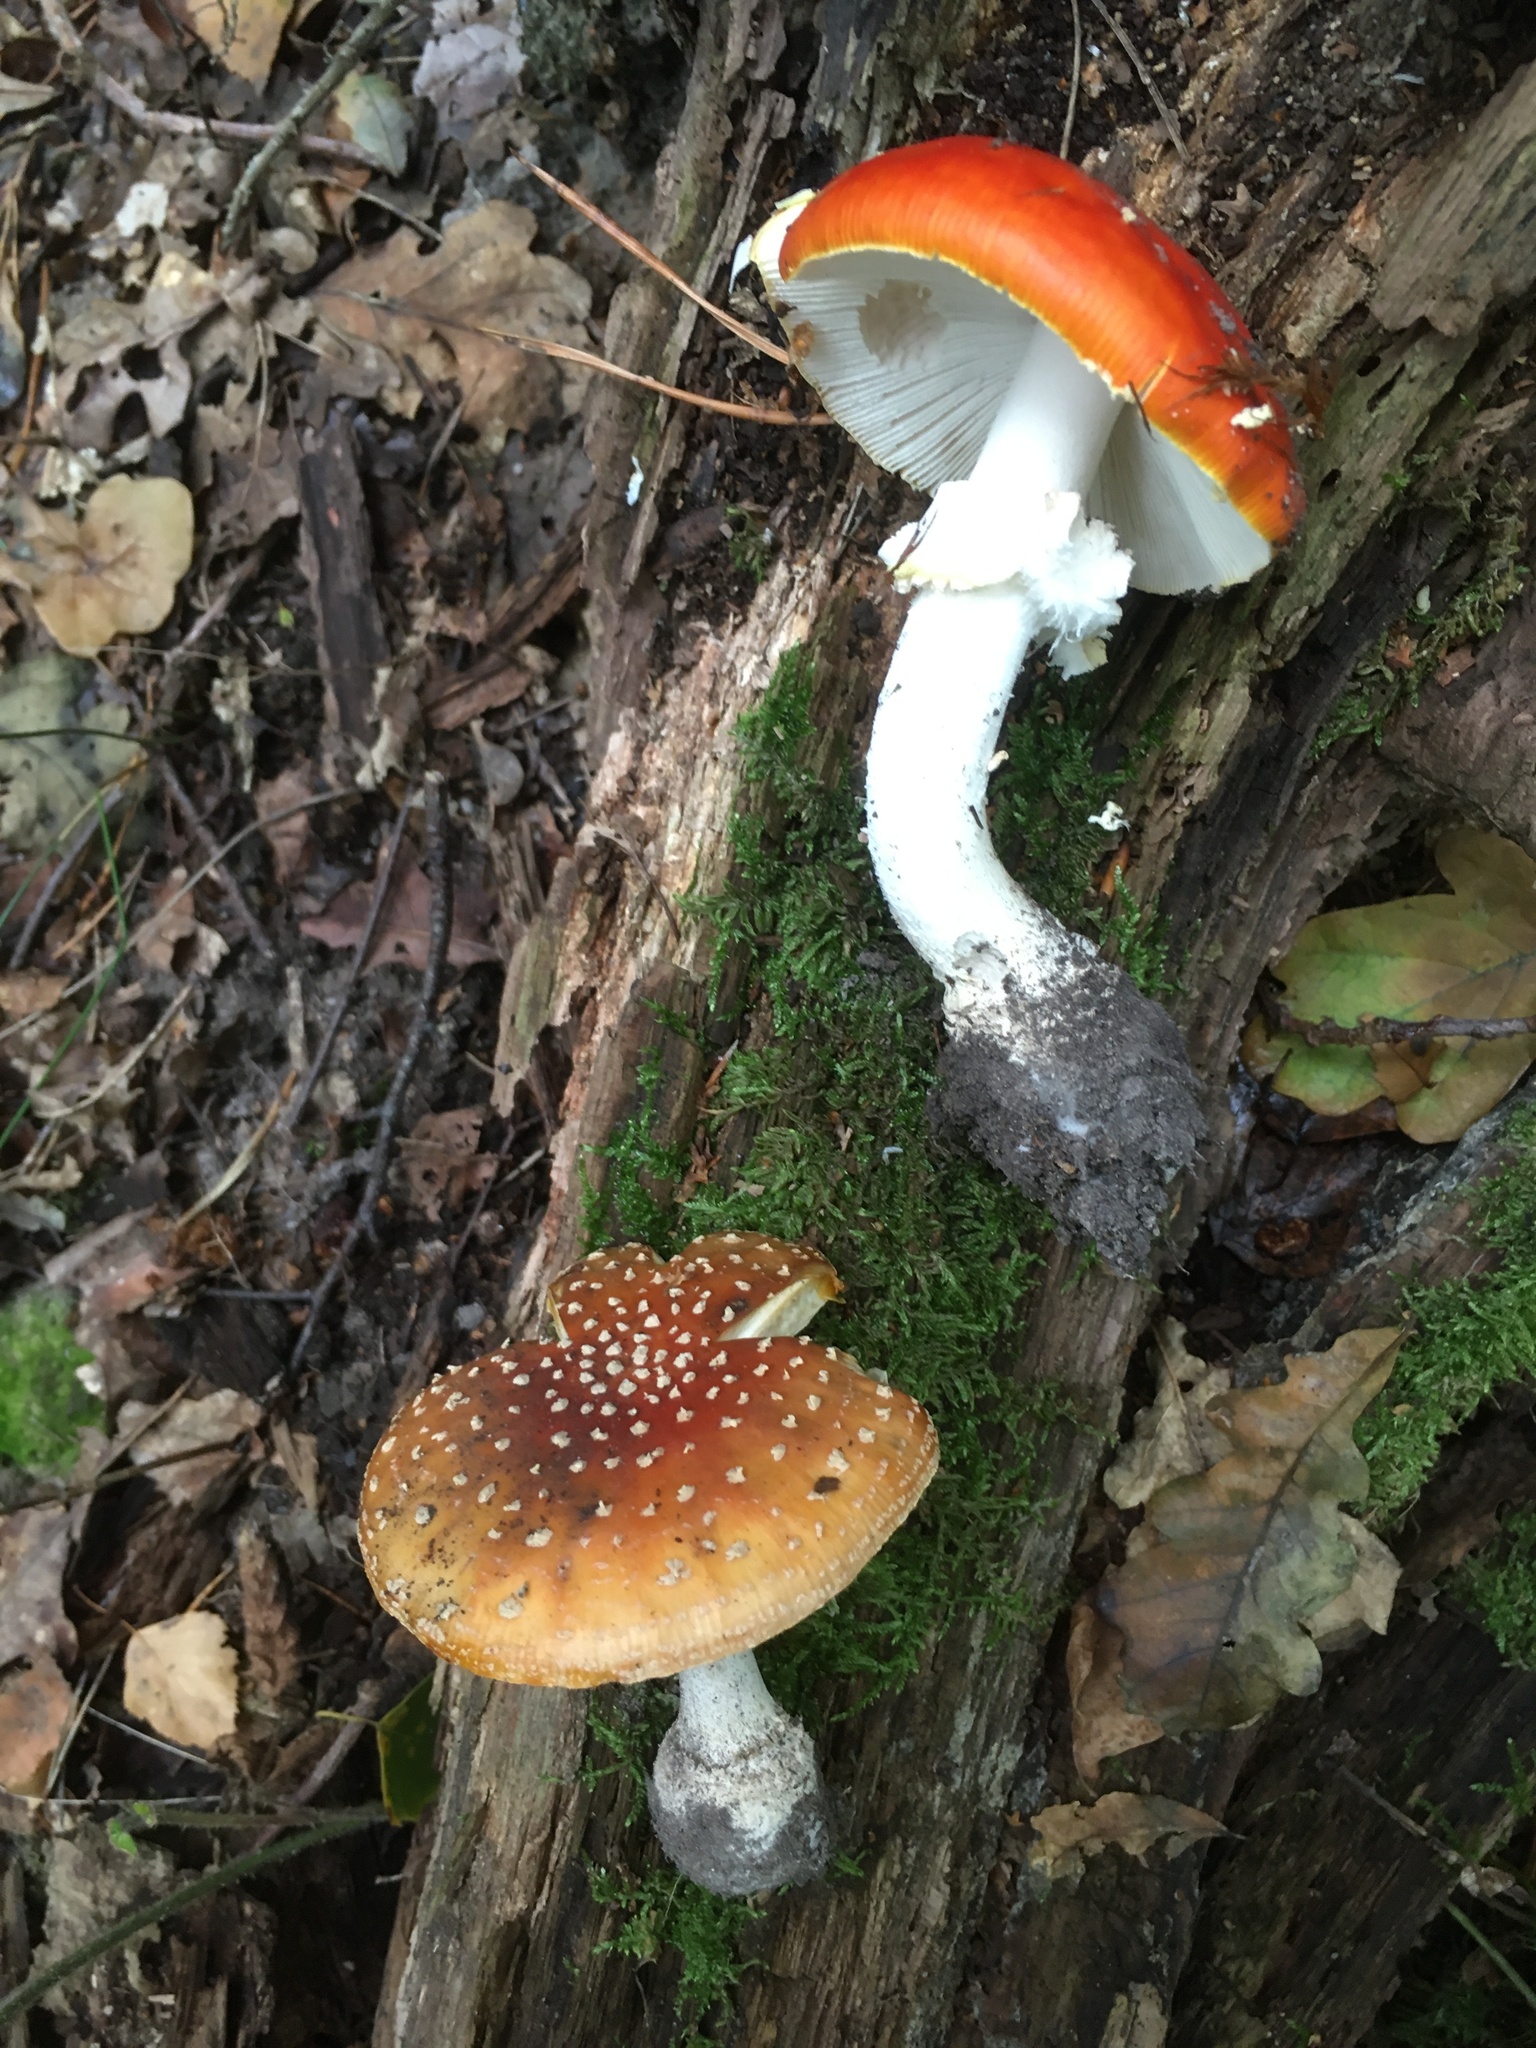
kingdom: Fungi
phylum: Basidiomycota
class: Agaricomycetes
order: Agaricales
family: Amanitaceae
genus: Amanita
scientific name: Amanita muscaria
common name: Fly agaric
